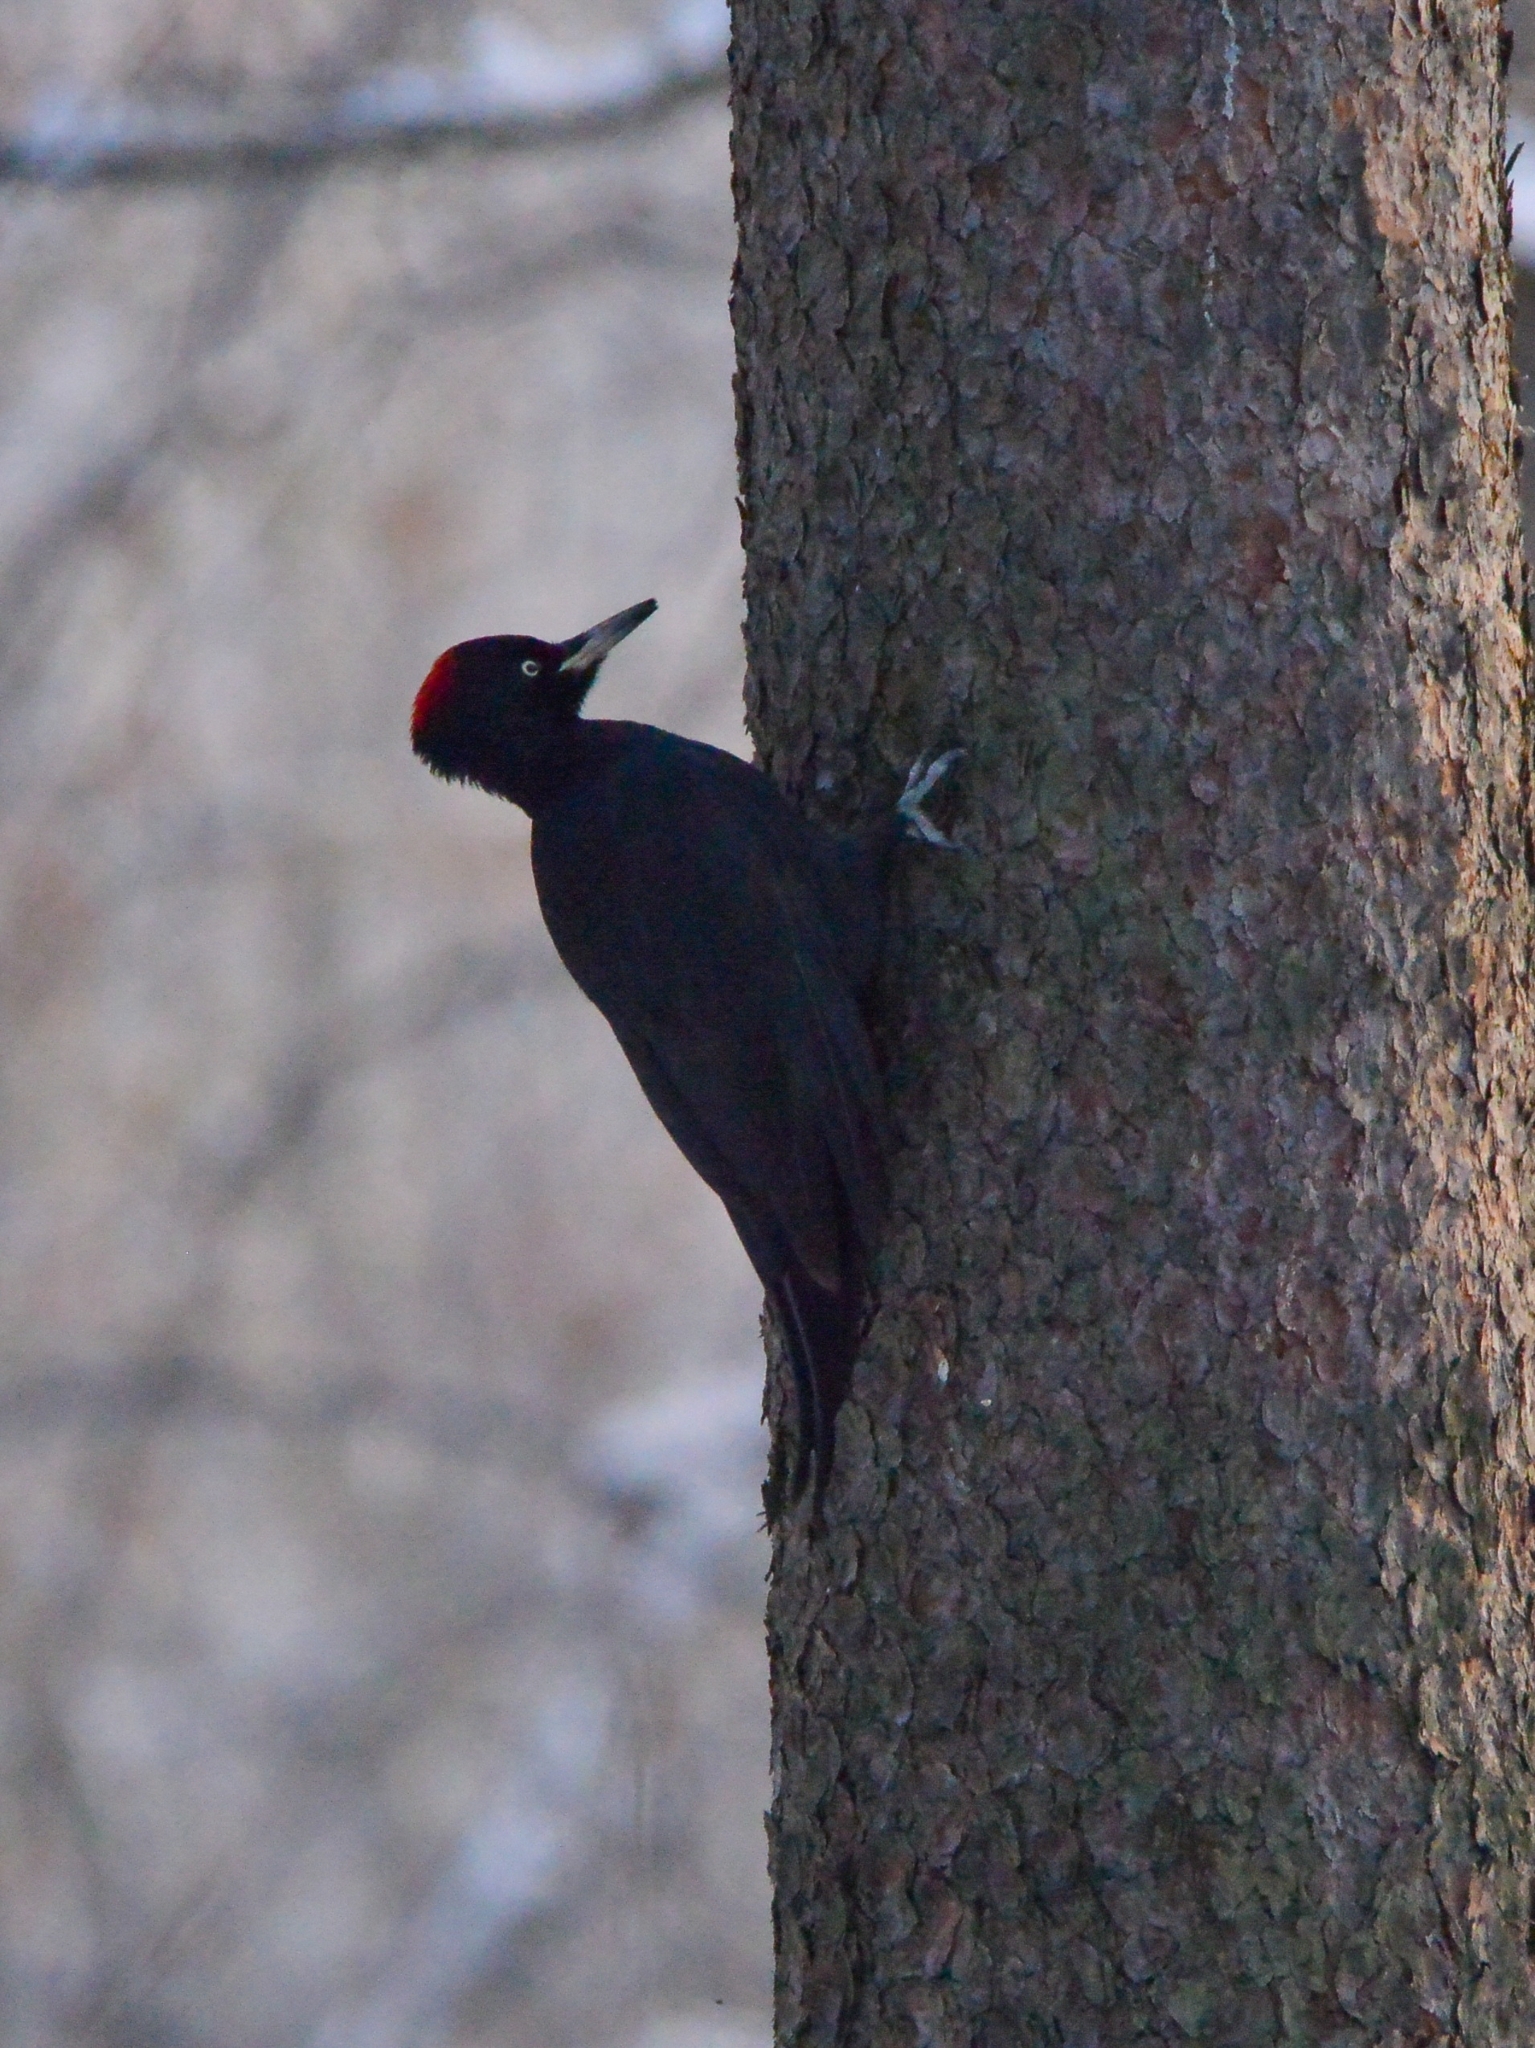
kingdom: Animalia
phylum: Chordata
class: Aves
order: Piciformes
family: Picidae
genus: Dryocopus
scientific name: Dryocopus martius
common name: Black woodpecker
